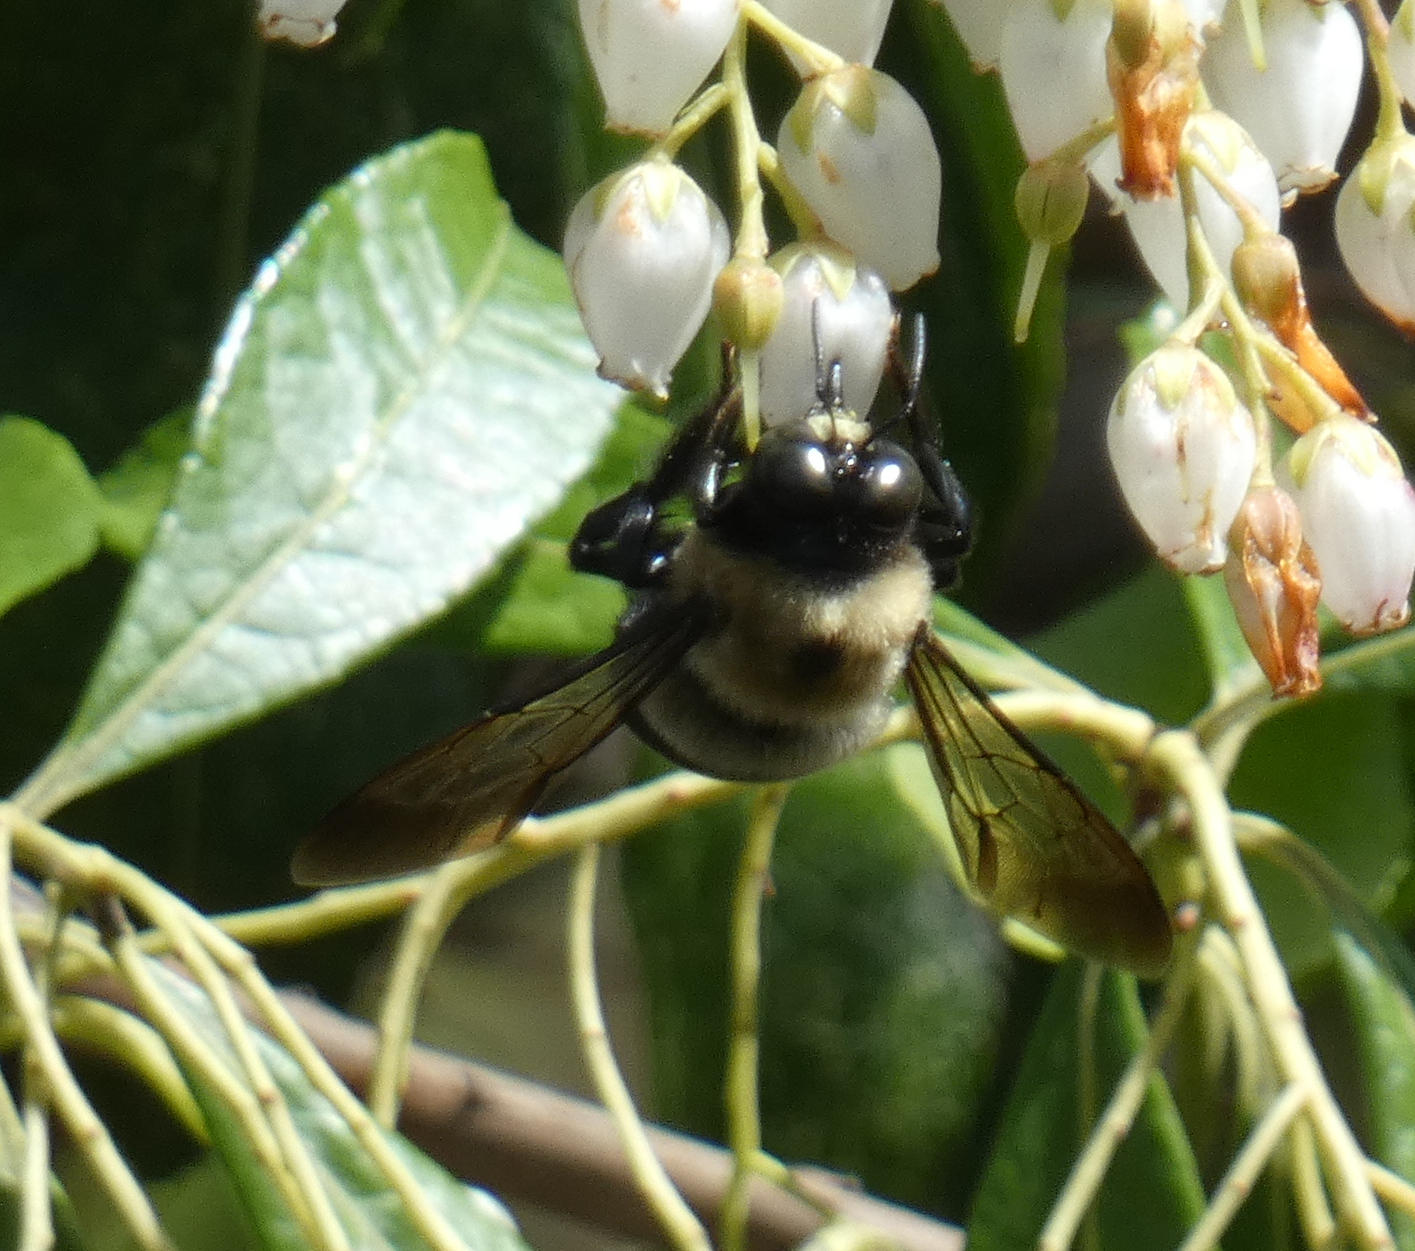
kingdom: Animalia
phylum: Arthropoda
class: Insecta
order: Hymenoptera
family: Apidae
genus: Xylocopa
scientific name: Xylocopa virginica
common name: Carpenter bee
